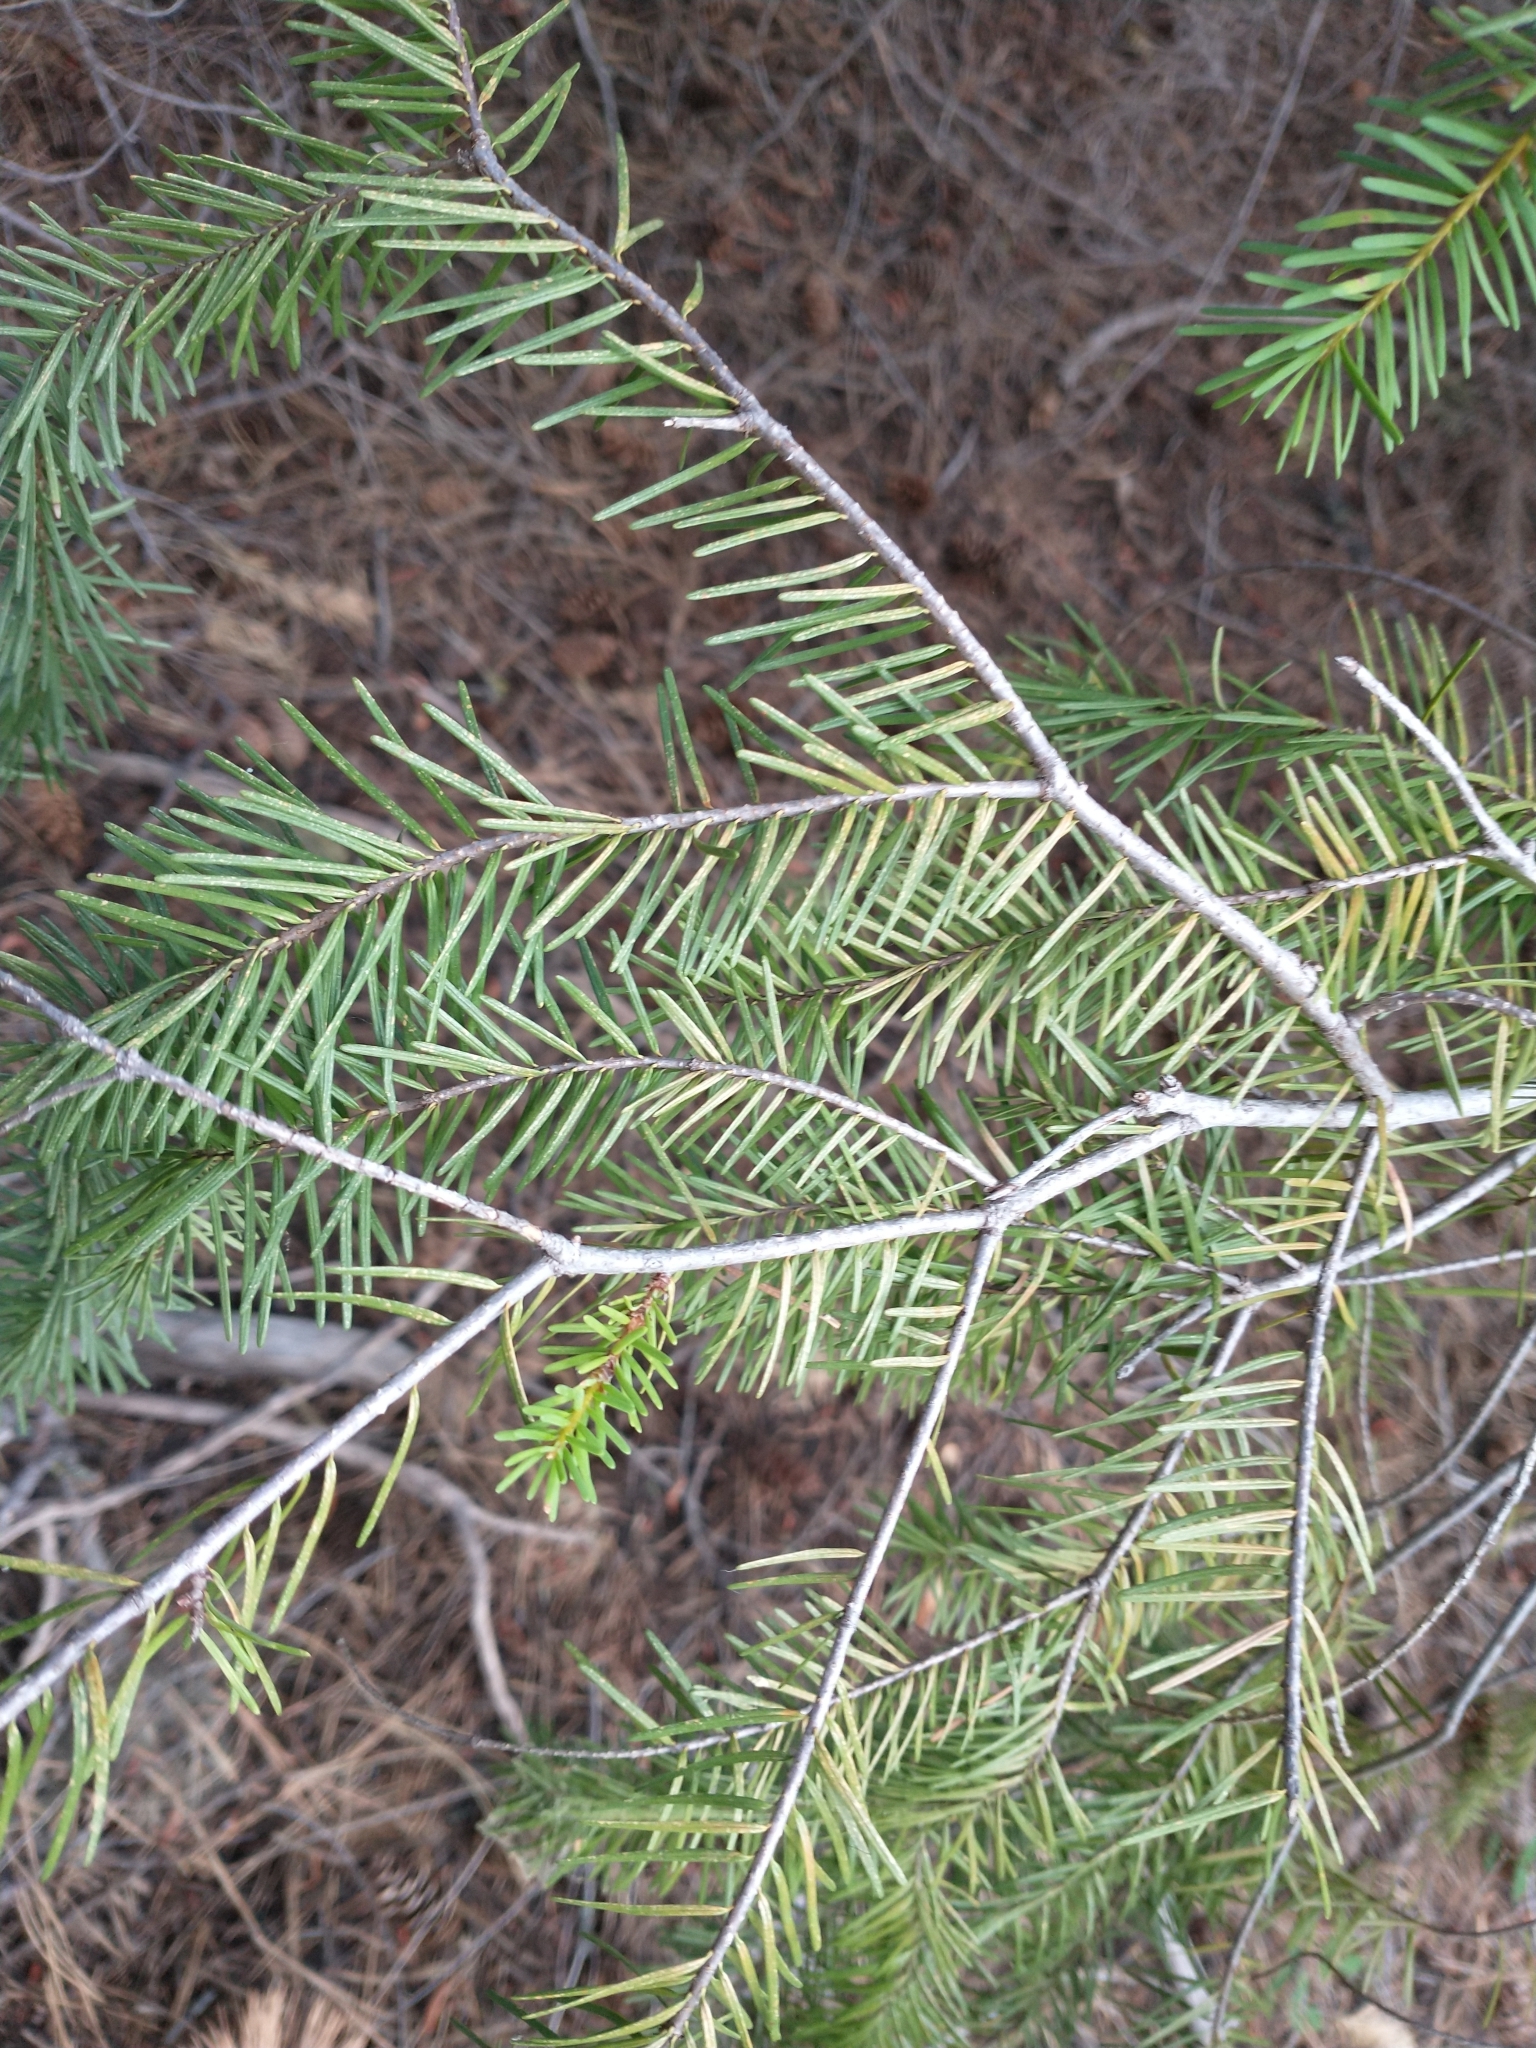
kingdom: Plantae
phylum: Tracheophyta
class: Pinopsida
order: Pinales
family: Pinaceae
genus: Pseudotsuga
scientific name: Pseudotsuga menziesii
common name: Douglas fir
